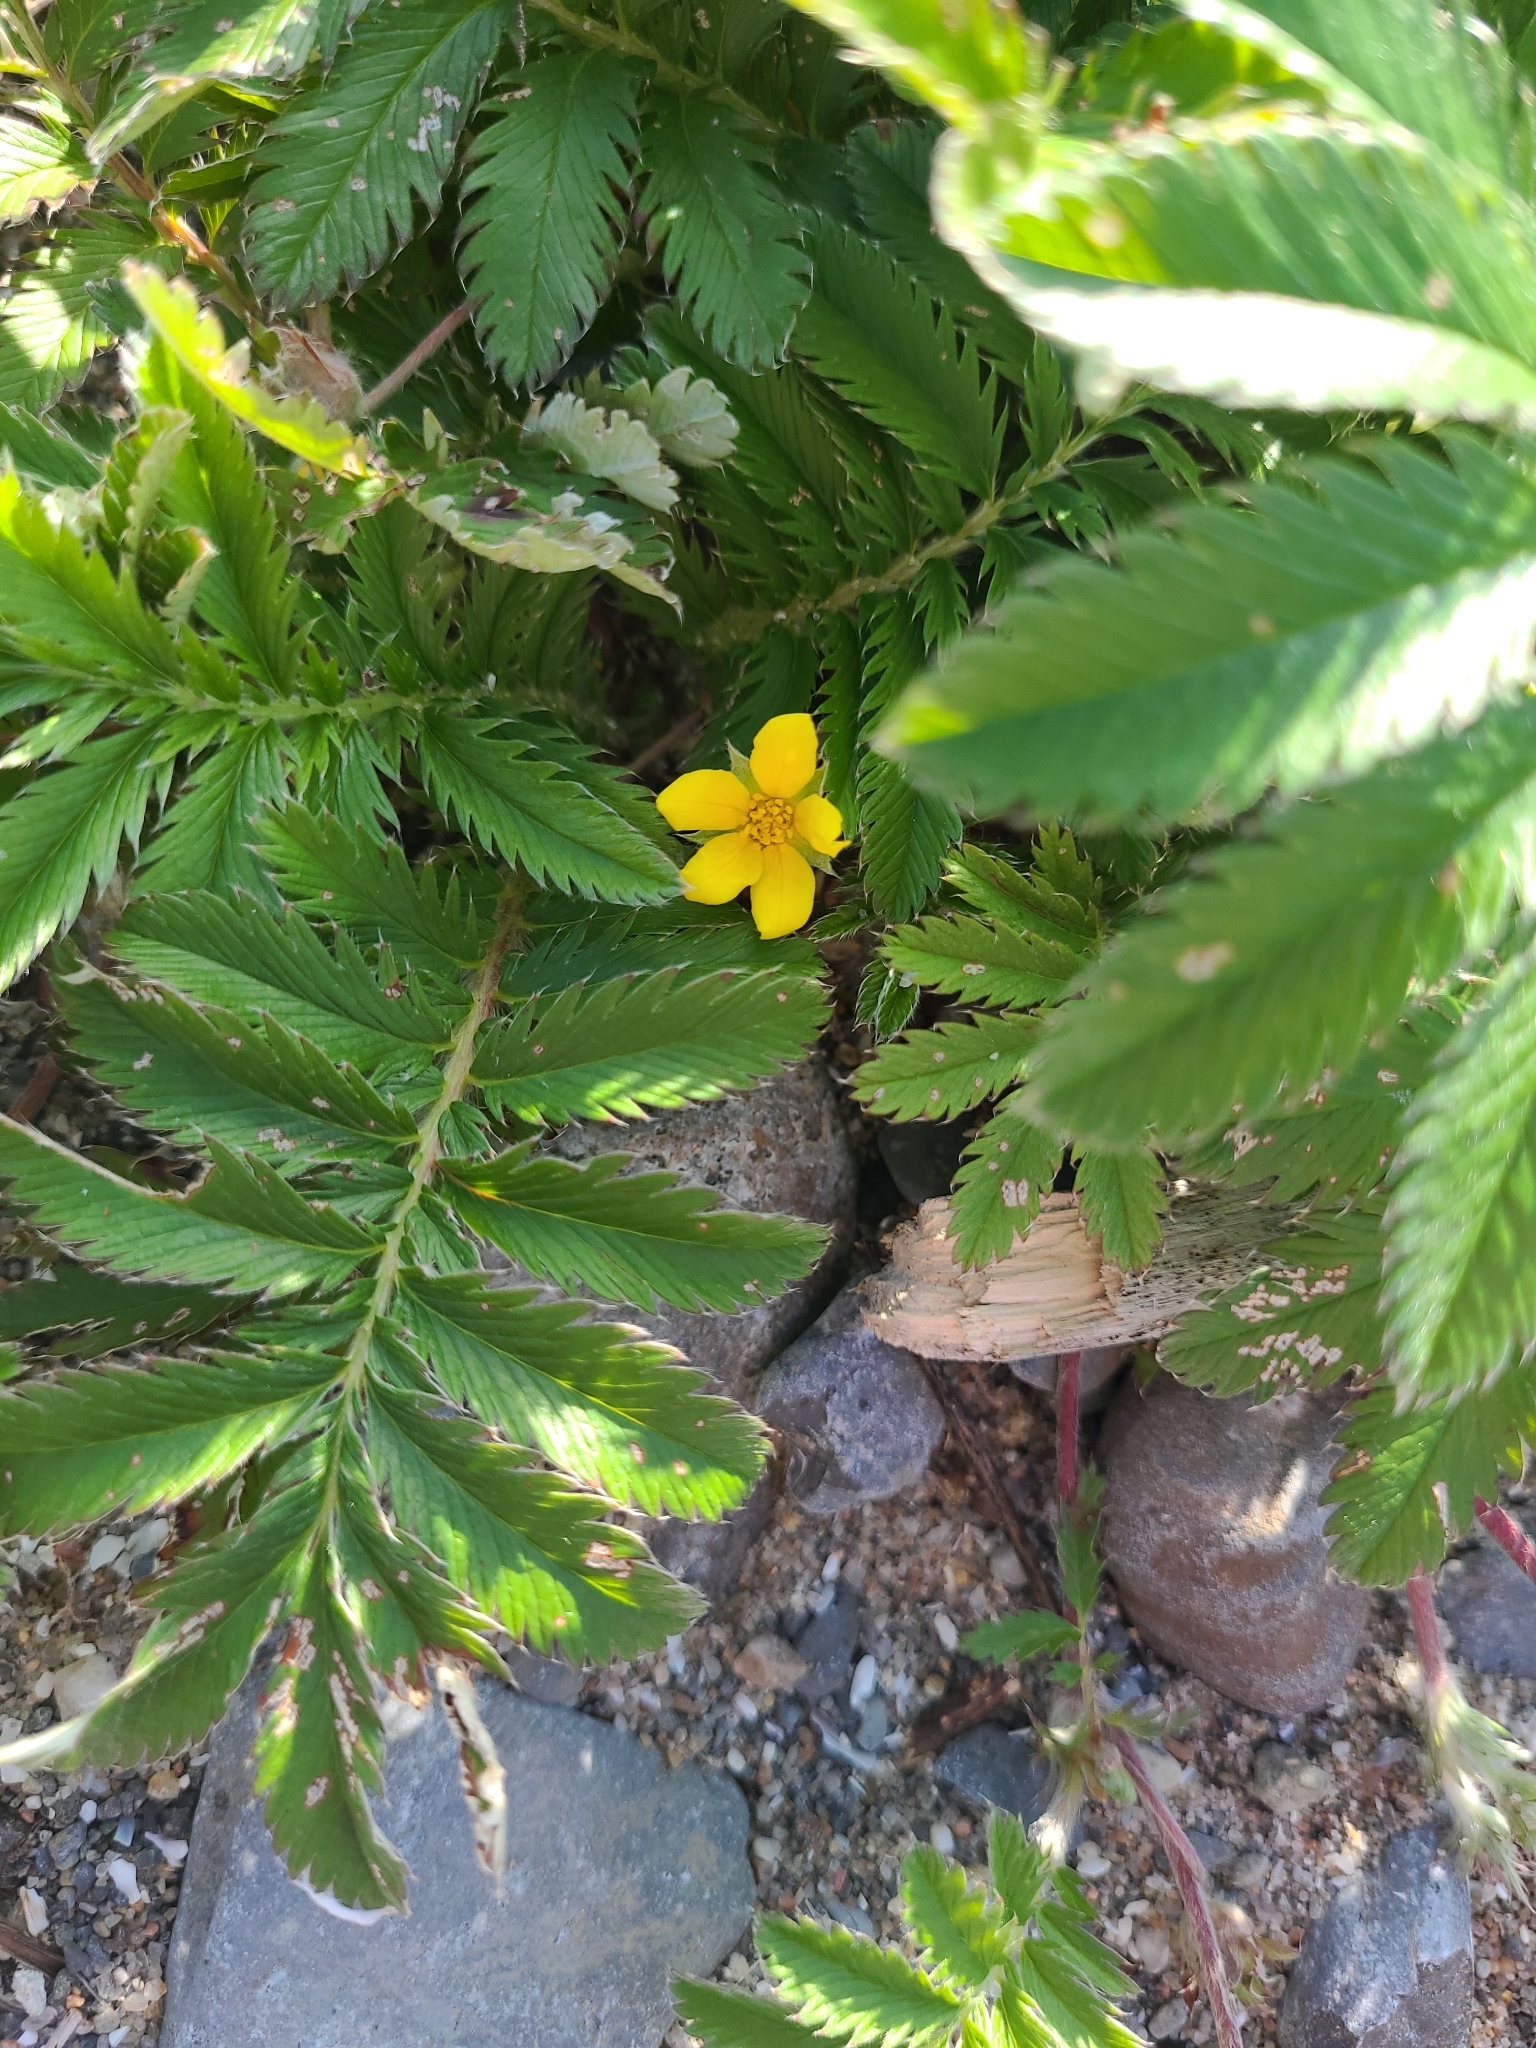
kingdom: Plantae
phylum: Tracheophyta
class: Magnoliopsida
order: Rosales
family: Rosaceae
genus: Argentina
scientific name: Argentina anserina
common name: Common silverweed
